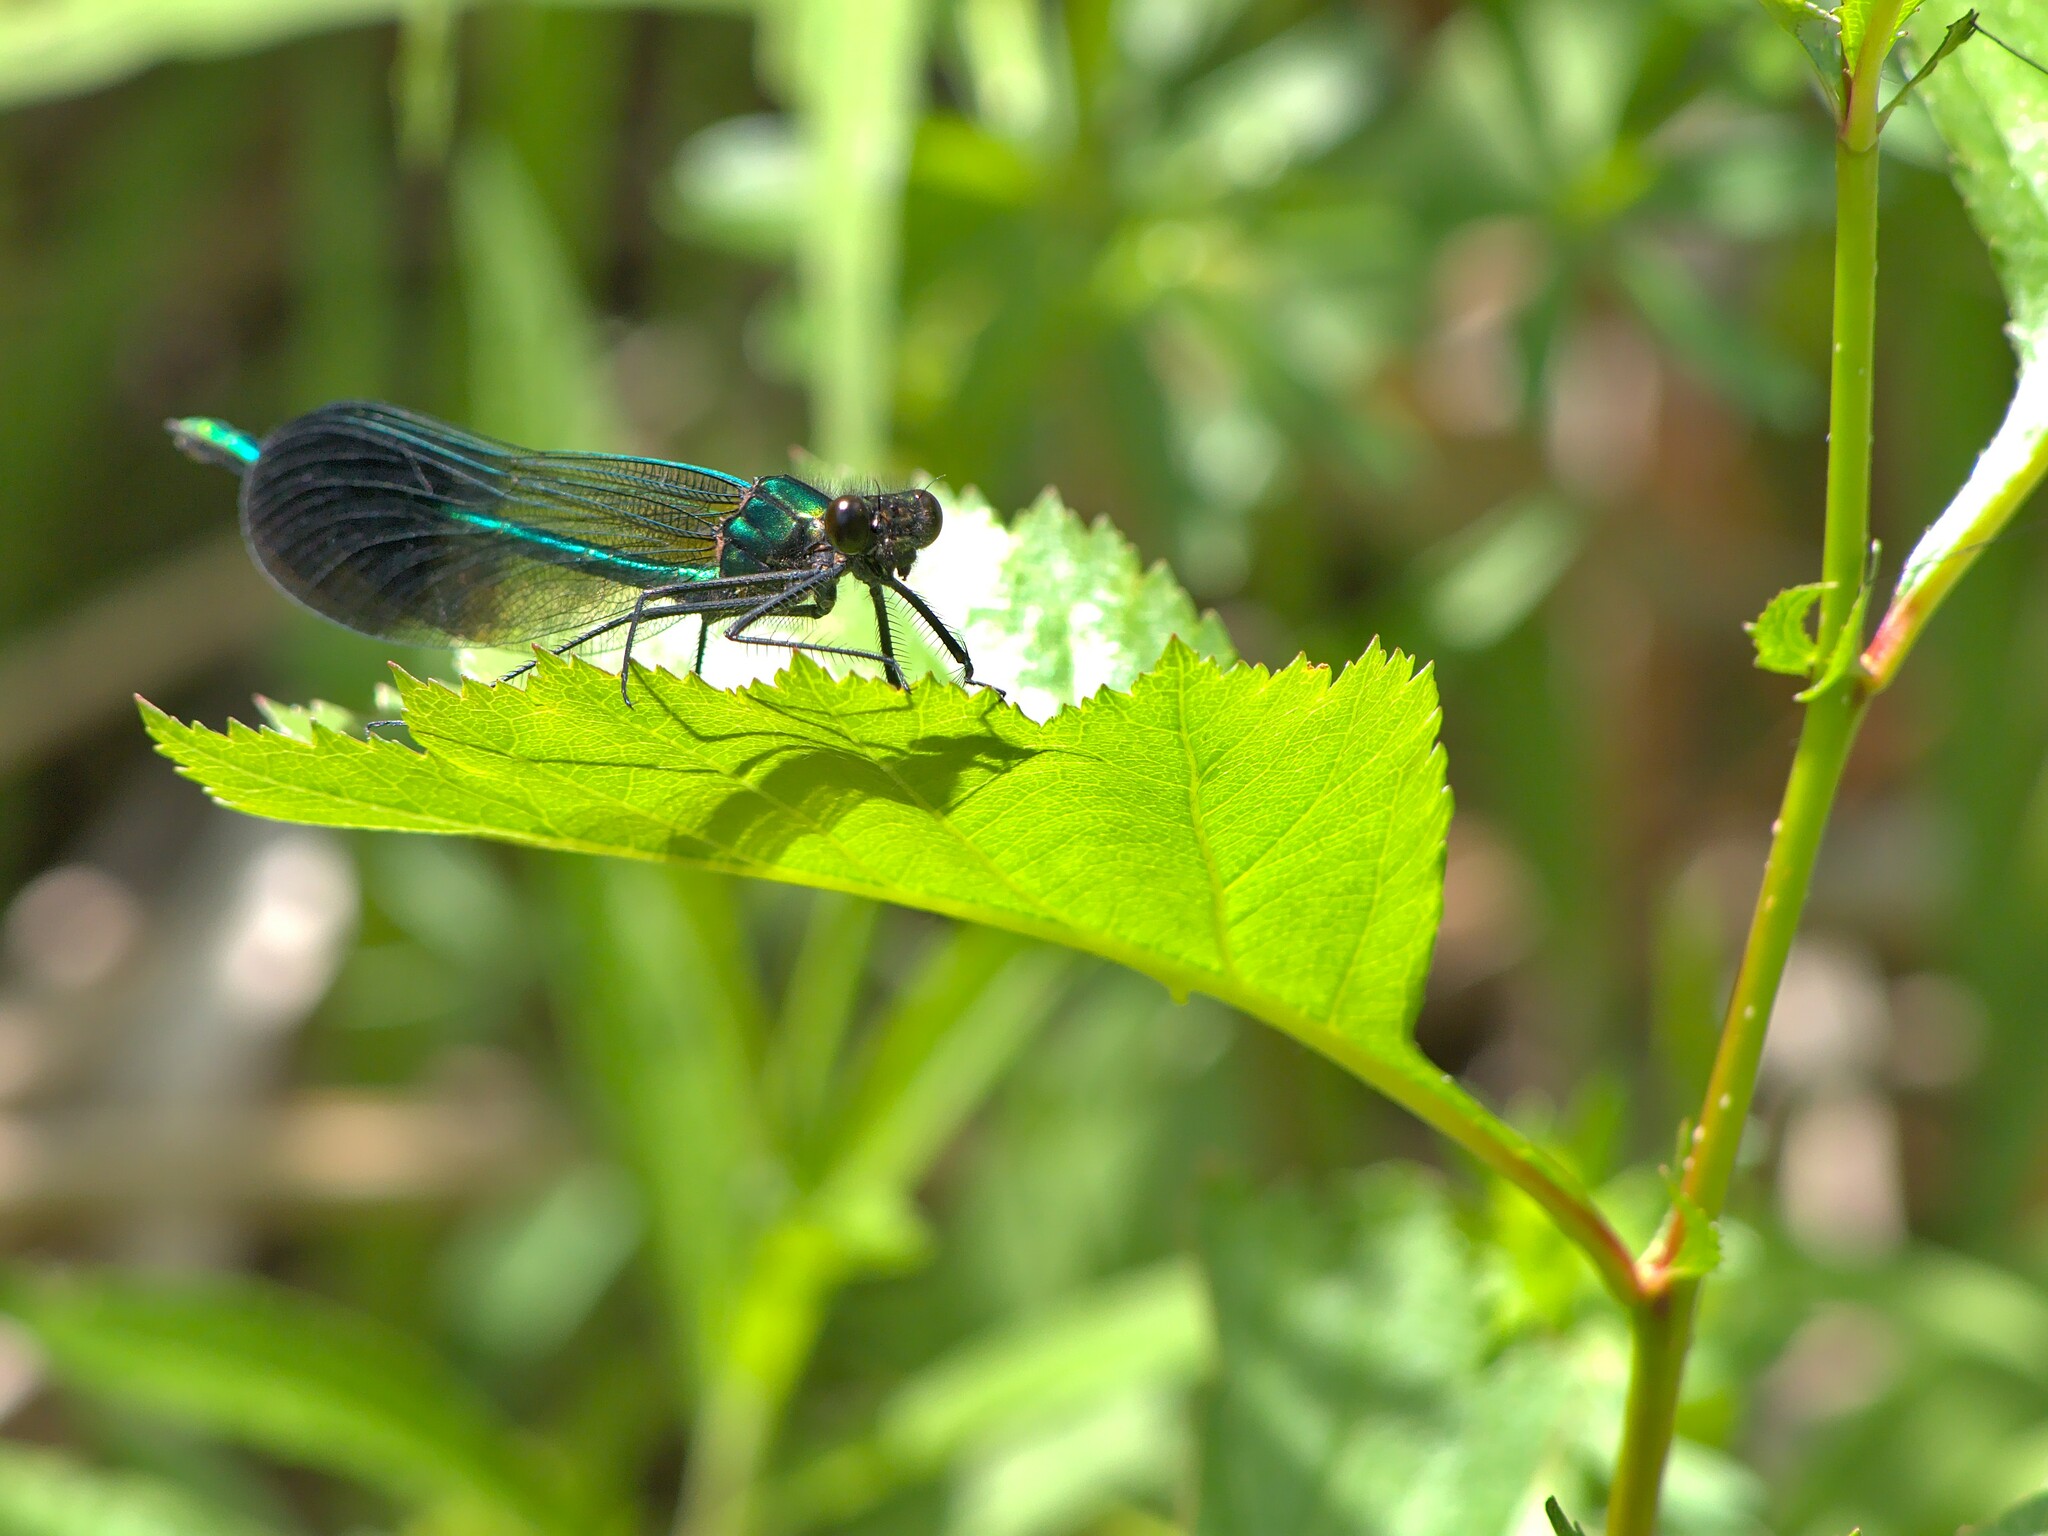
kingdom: Animalia
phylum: Arthropoda
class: Insecta
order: Odonata
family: Calopterygidae
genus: Calopteryx
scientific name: Calopteryx aequabilis
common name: River jewelwing
